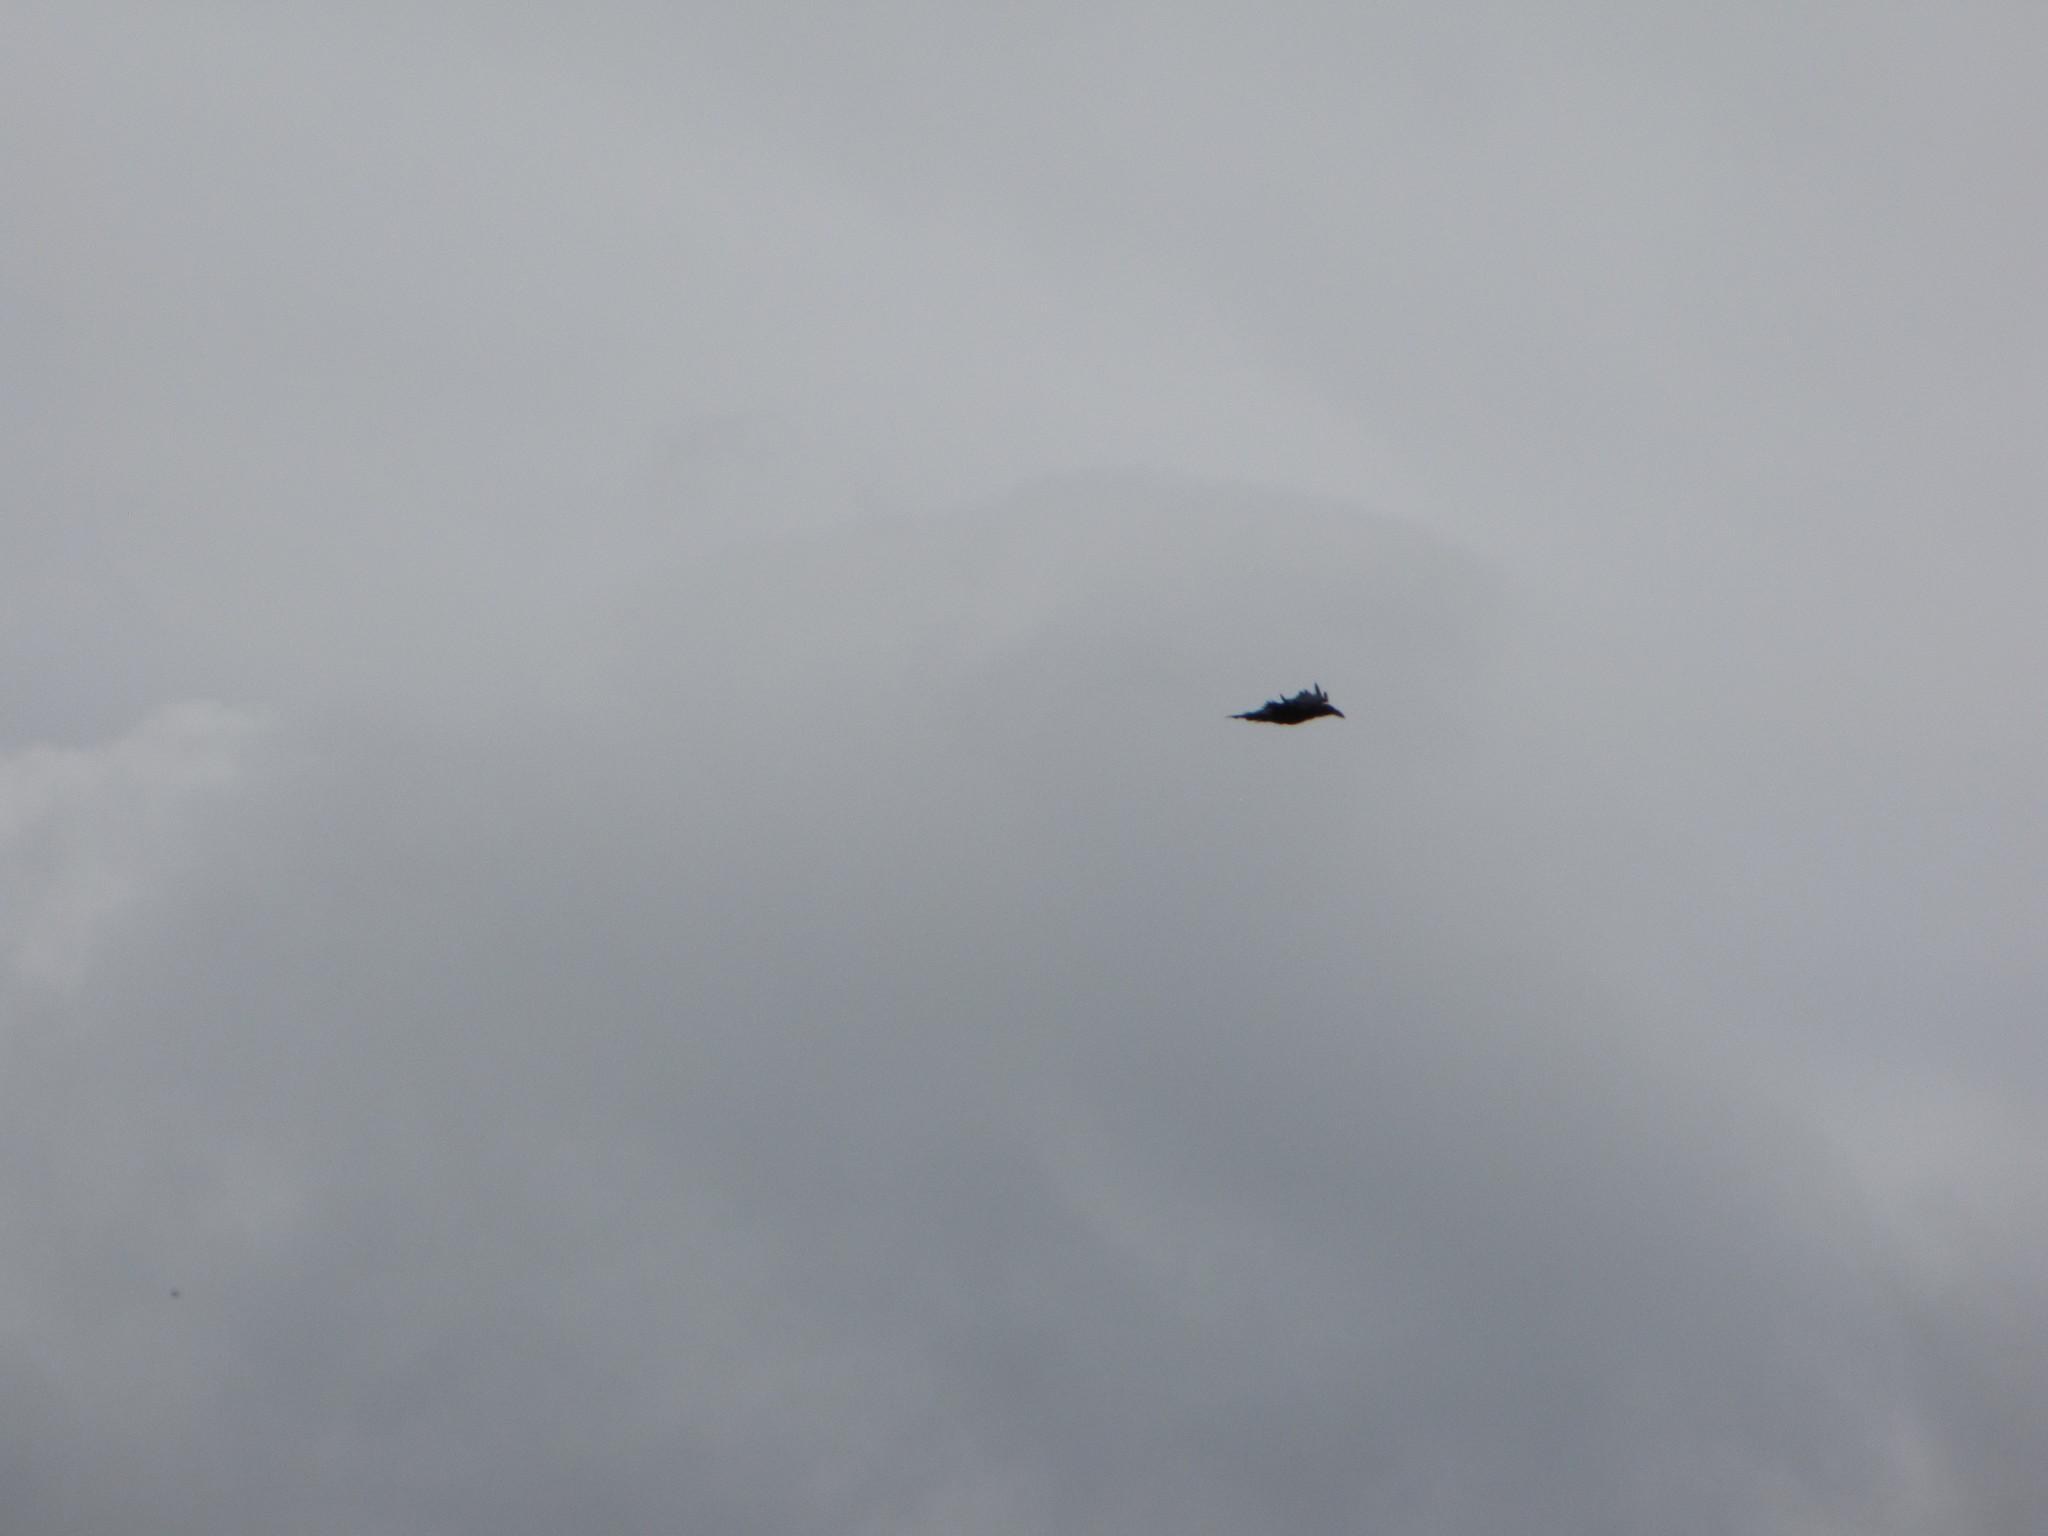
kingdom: Animalia
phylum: Chordata
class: Aves
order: Passeriformes
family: Corvidae
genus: Corvus
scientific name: Corvus brachyrhynchos
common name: American crow
